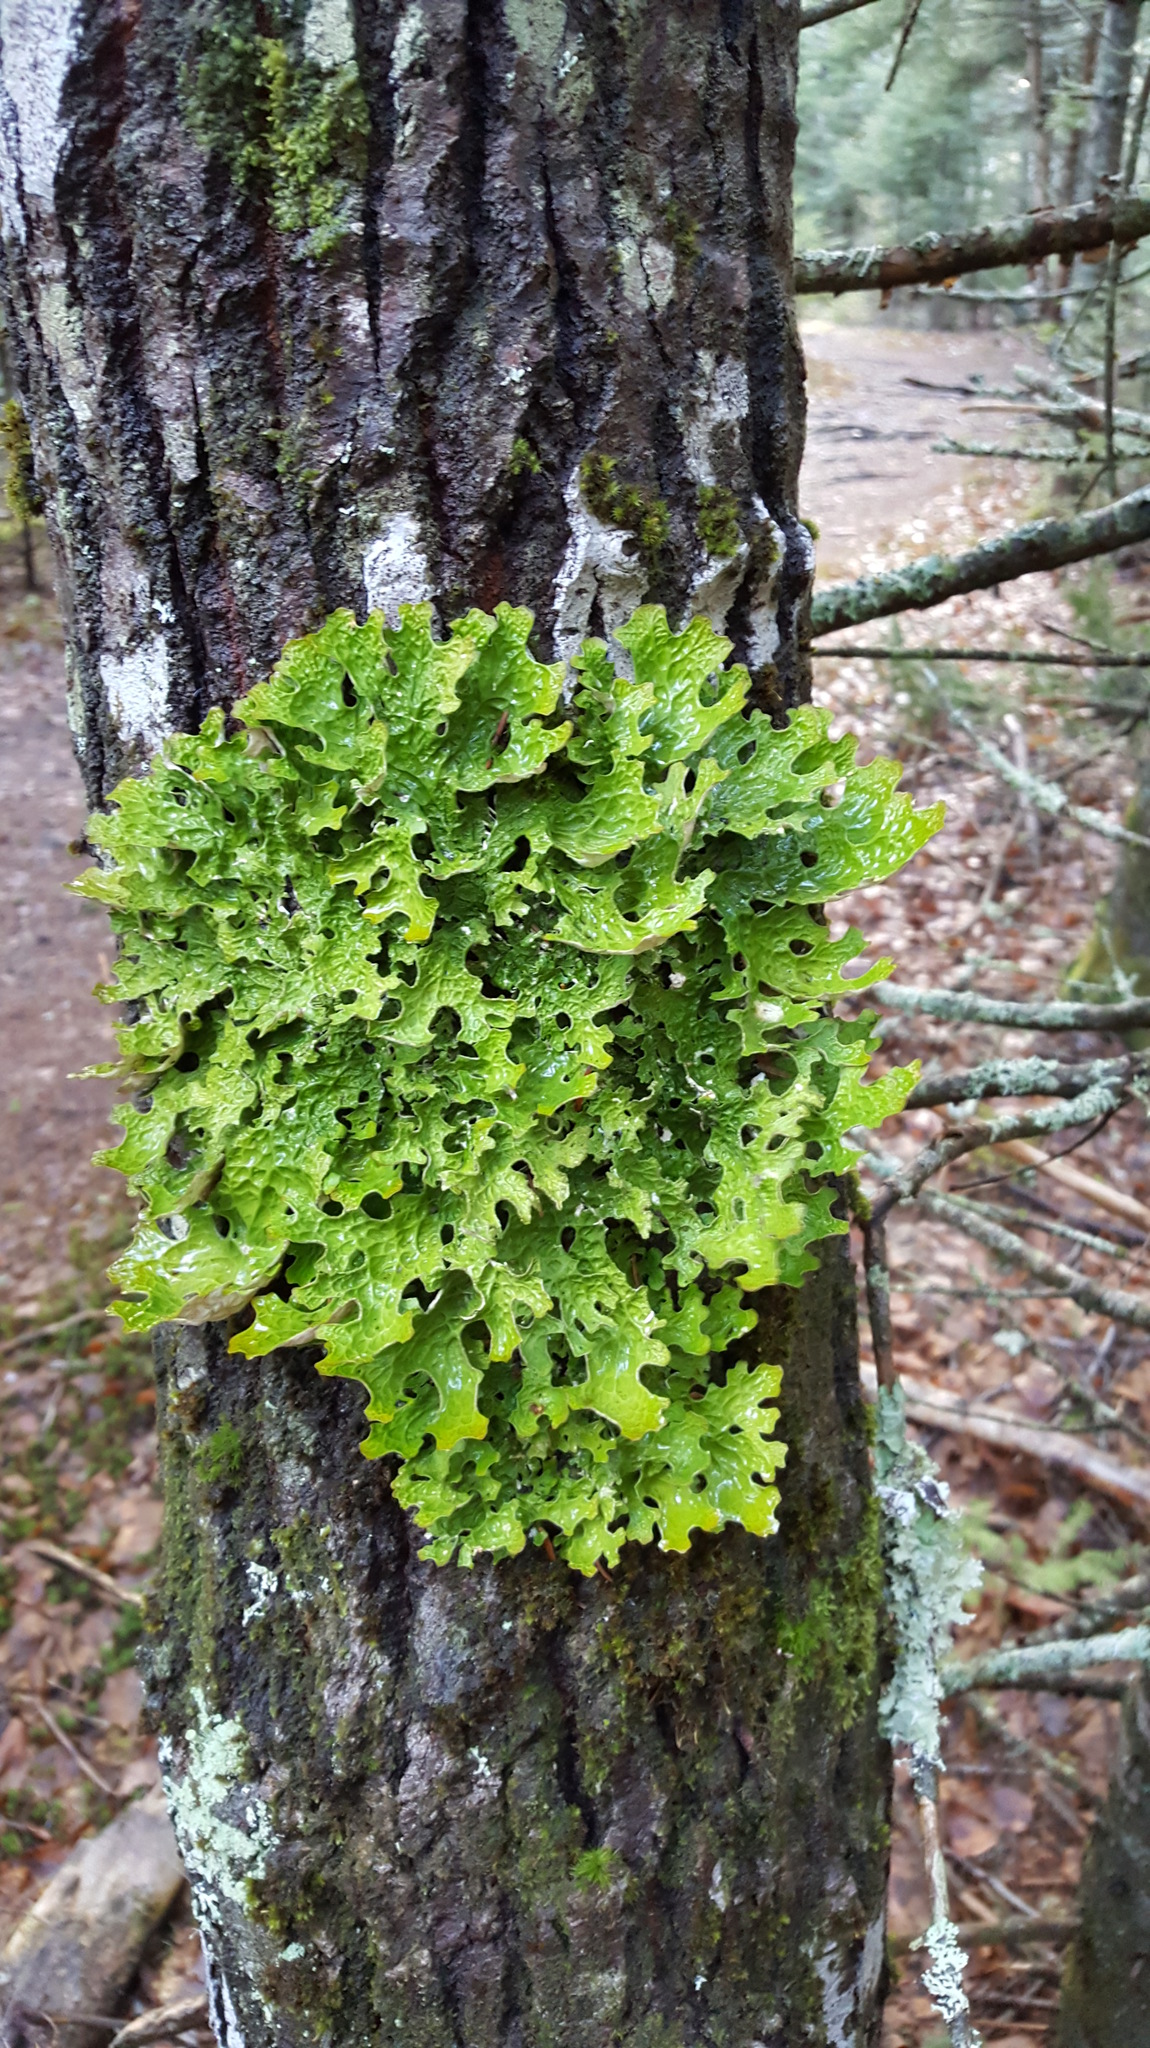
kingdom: Fungi
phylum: Ascomycota
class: Lecanoromycetes
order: Peltigerales
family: Lobariaceae
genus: Lobaria
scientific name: Lobaria pulmonaria
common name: Lungwort
